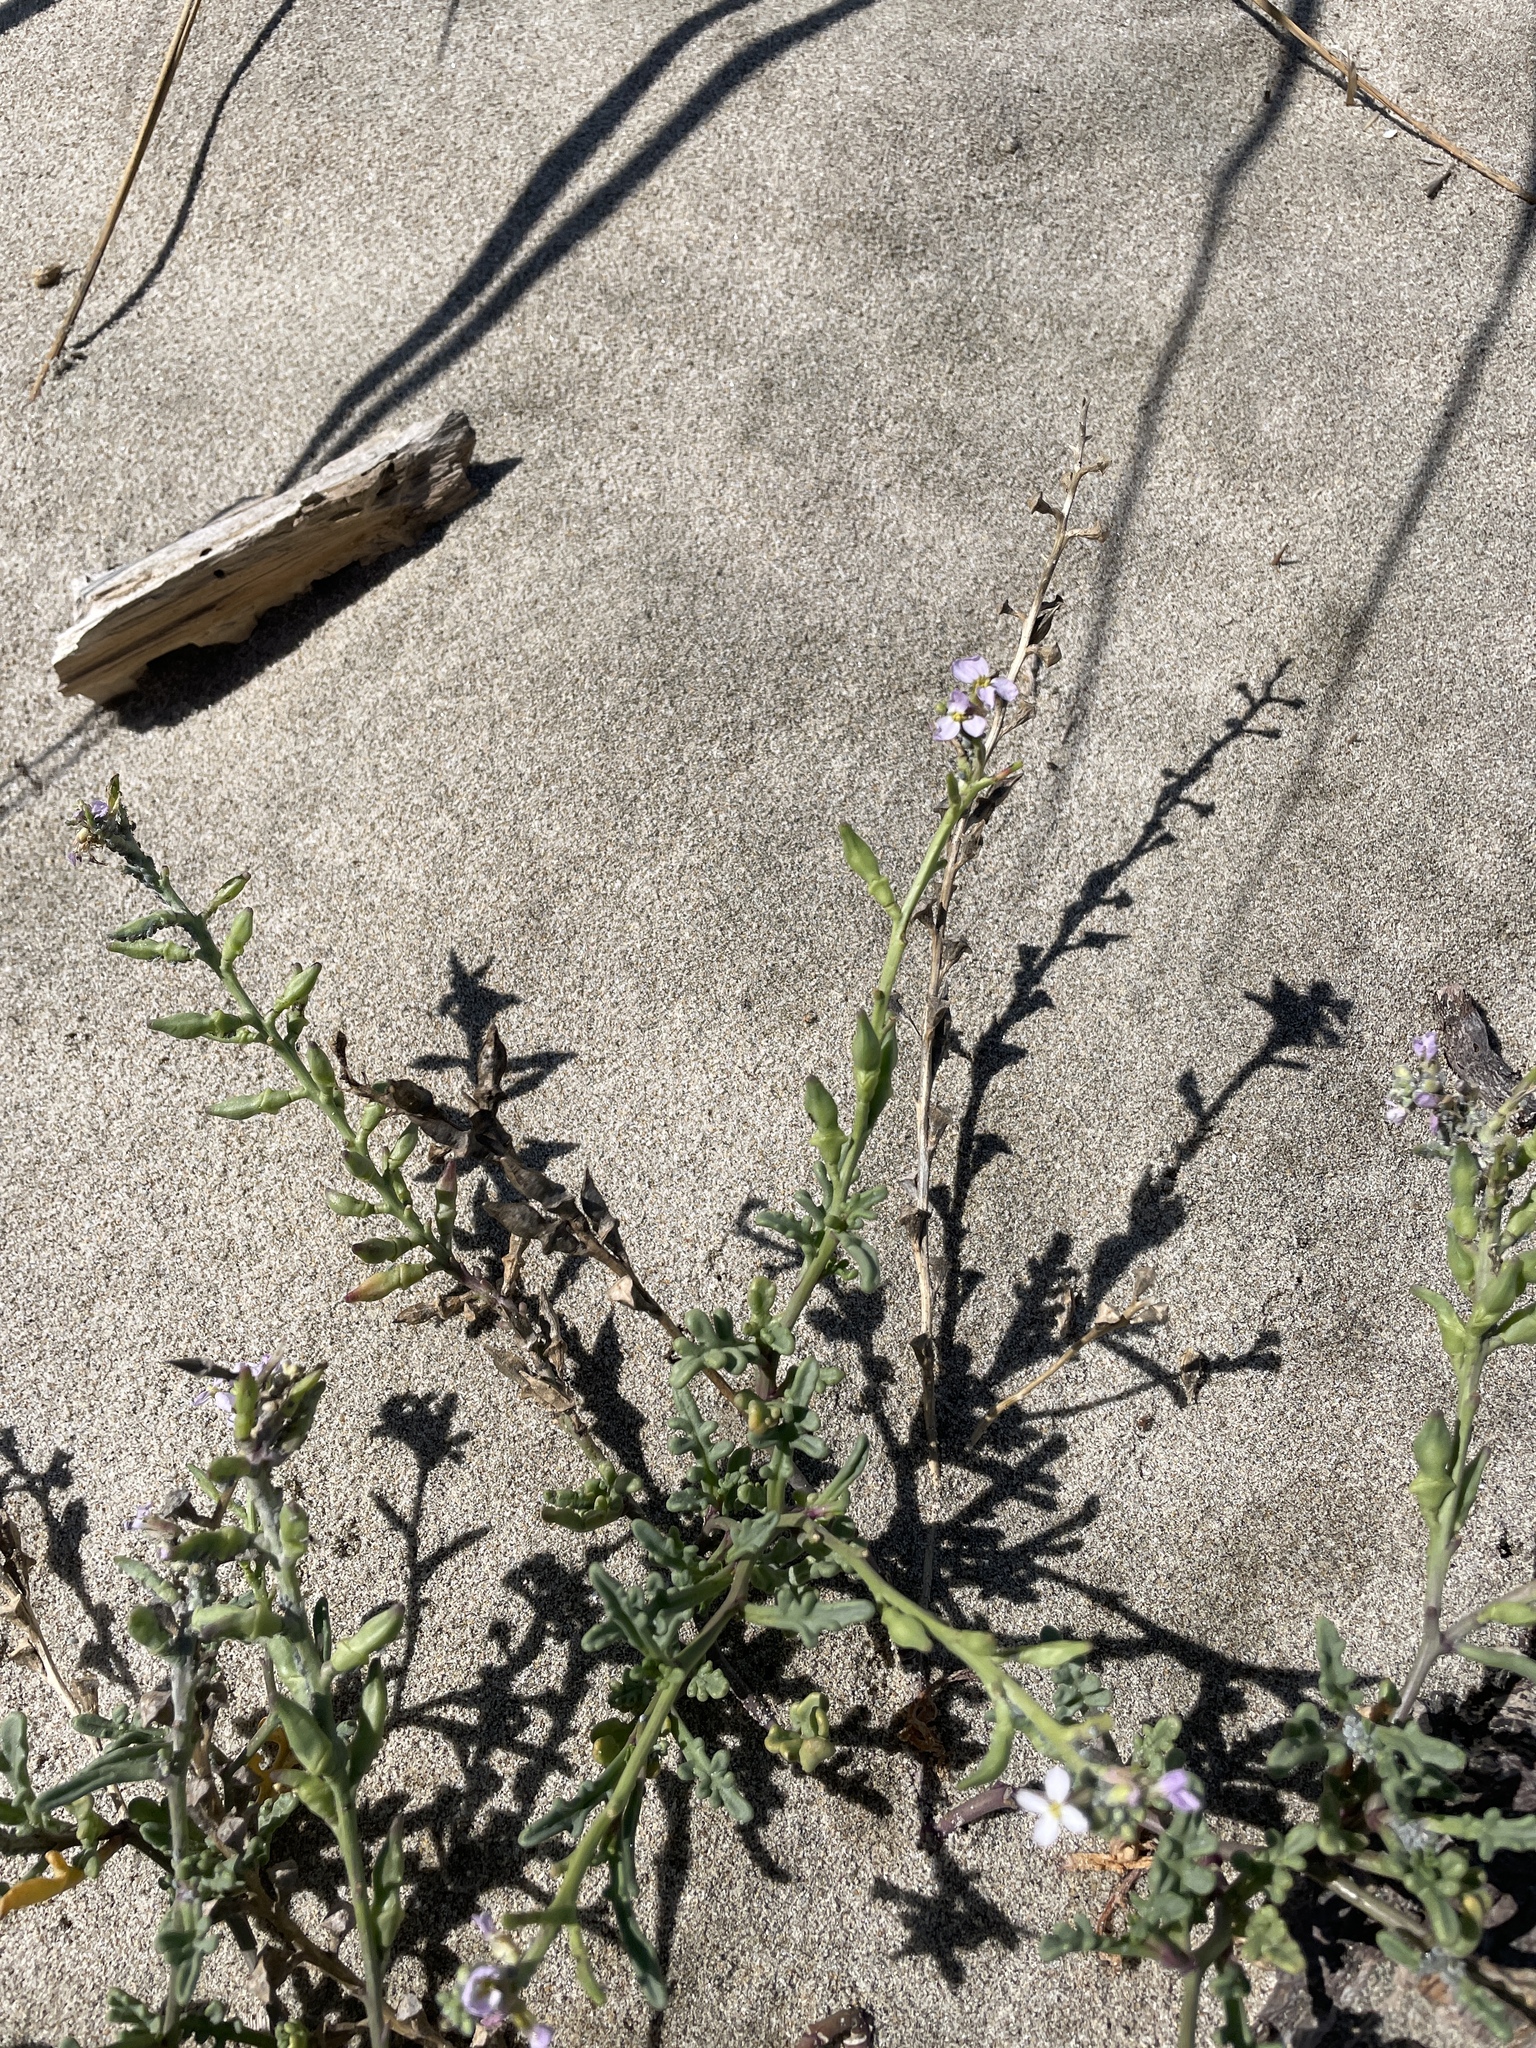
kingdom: Plantae
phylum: Tracheophyta
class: Magnoliopsida
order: Brassicales
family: Brassicaceae
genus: Cakile
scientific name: Cakile maritima
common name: Sea rocket
